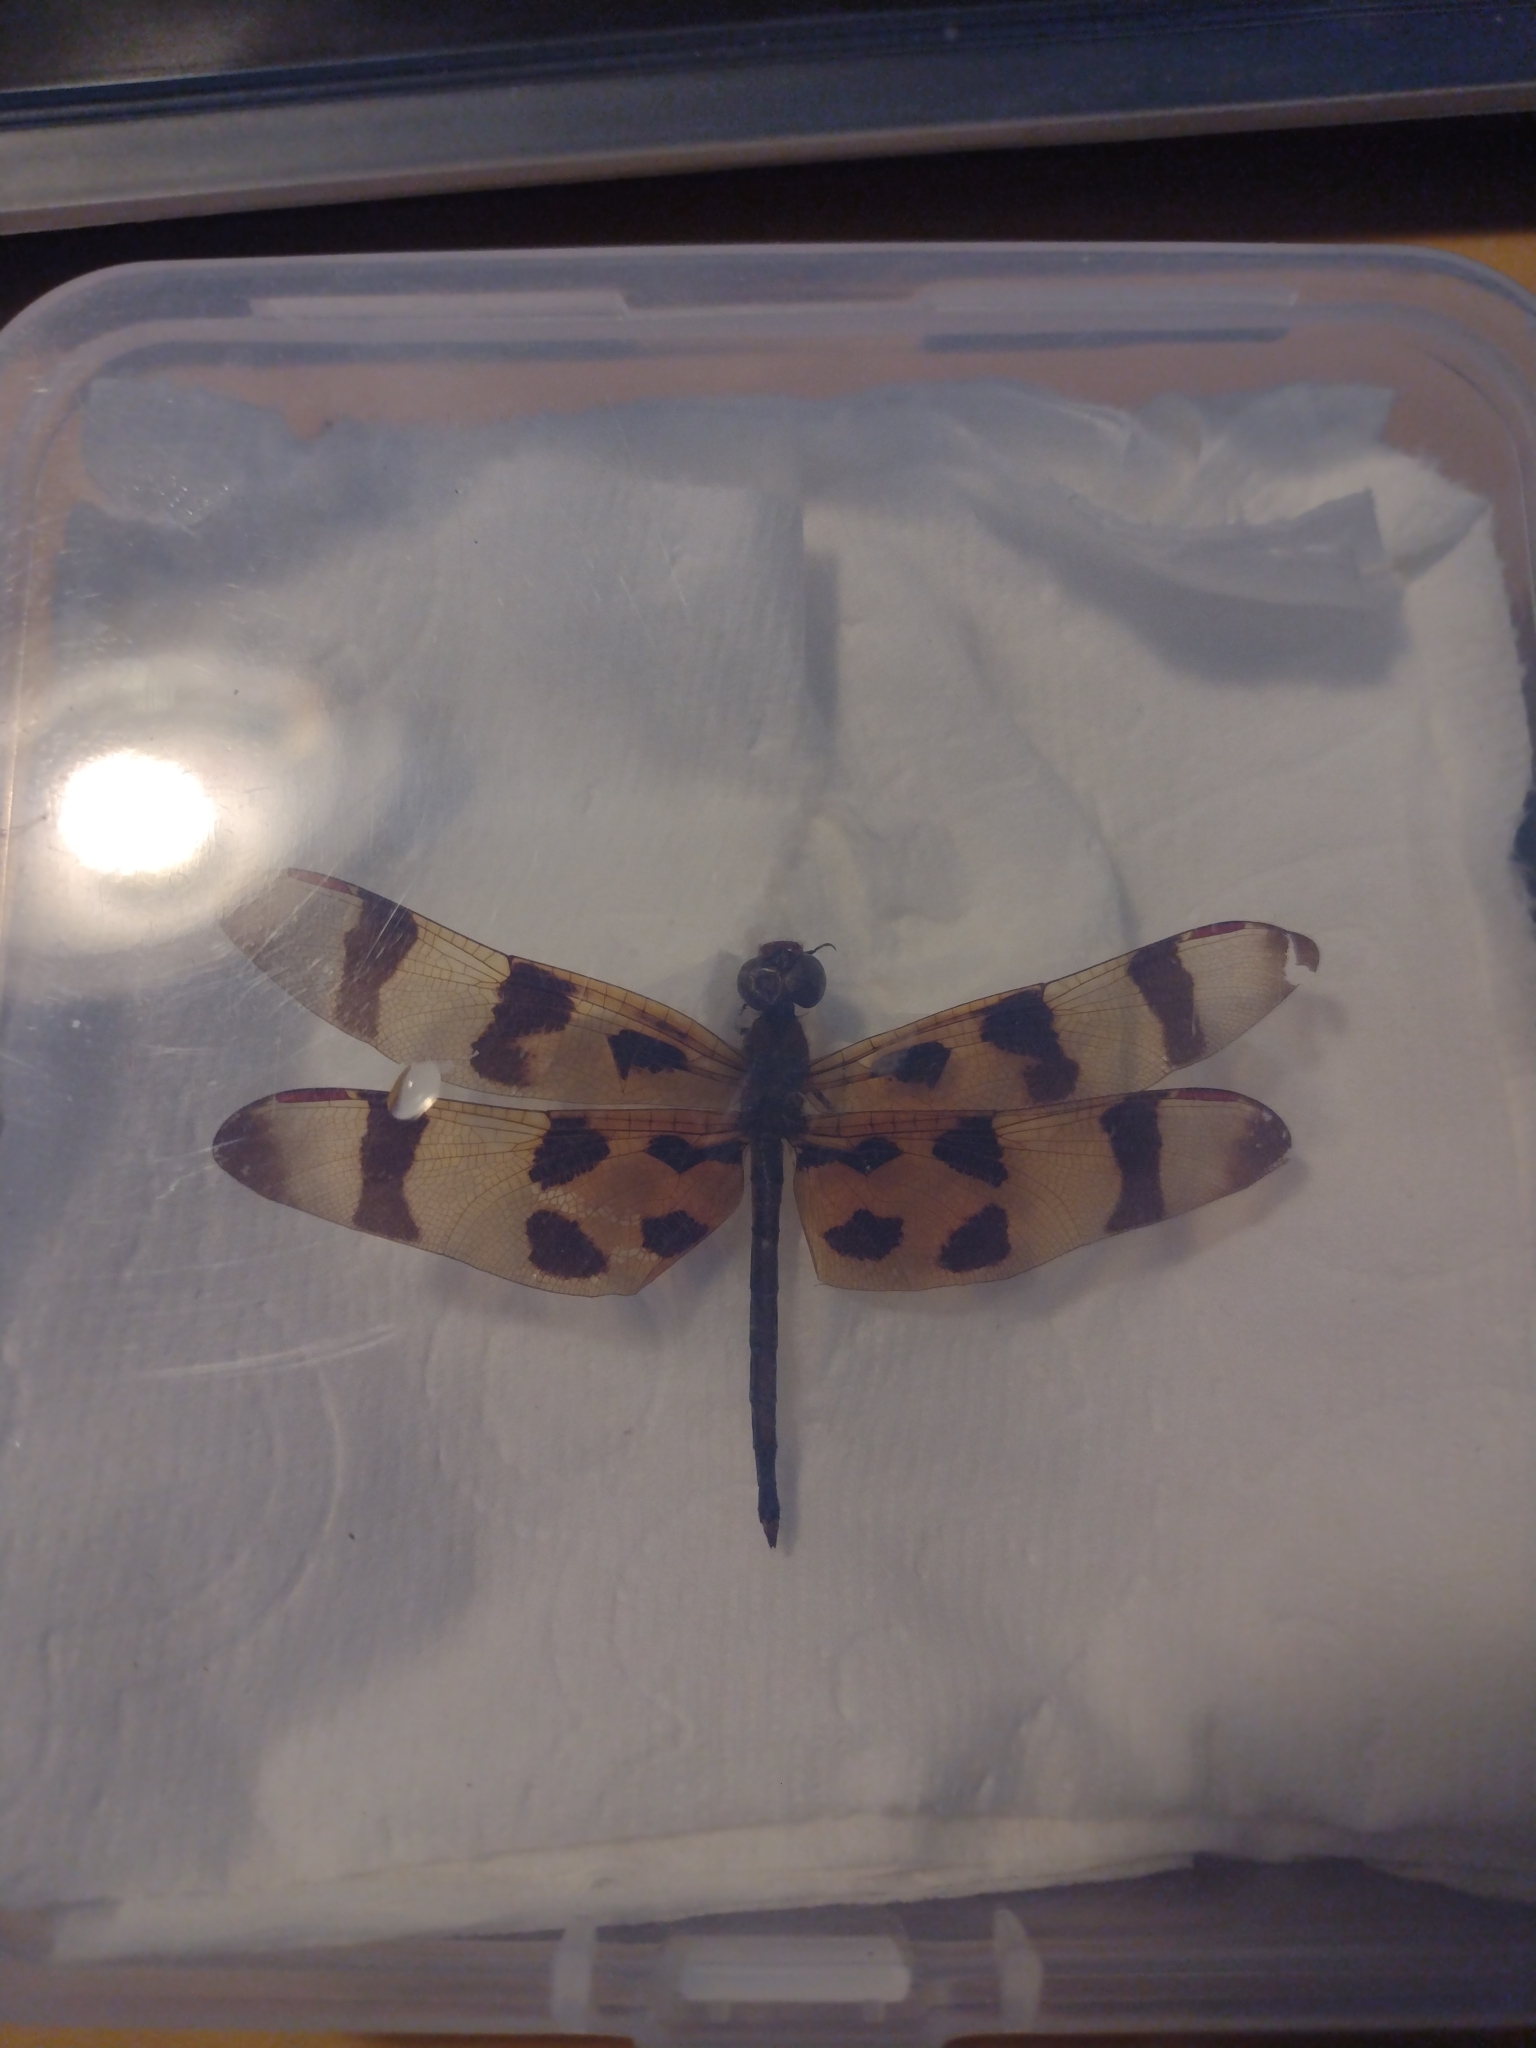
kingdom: Animalia
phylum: Arthropoda
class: Insecta
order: Odonata
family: Libellulidae
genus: Celithemis
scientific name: Celithemis eponina
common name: Halloween pennant
